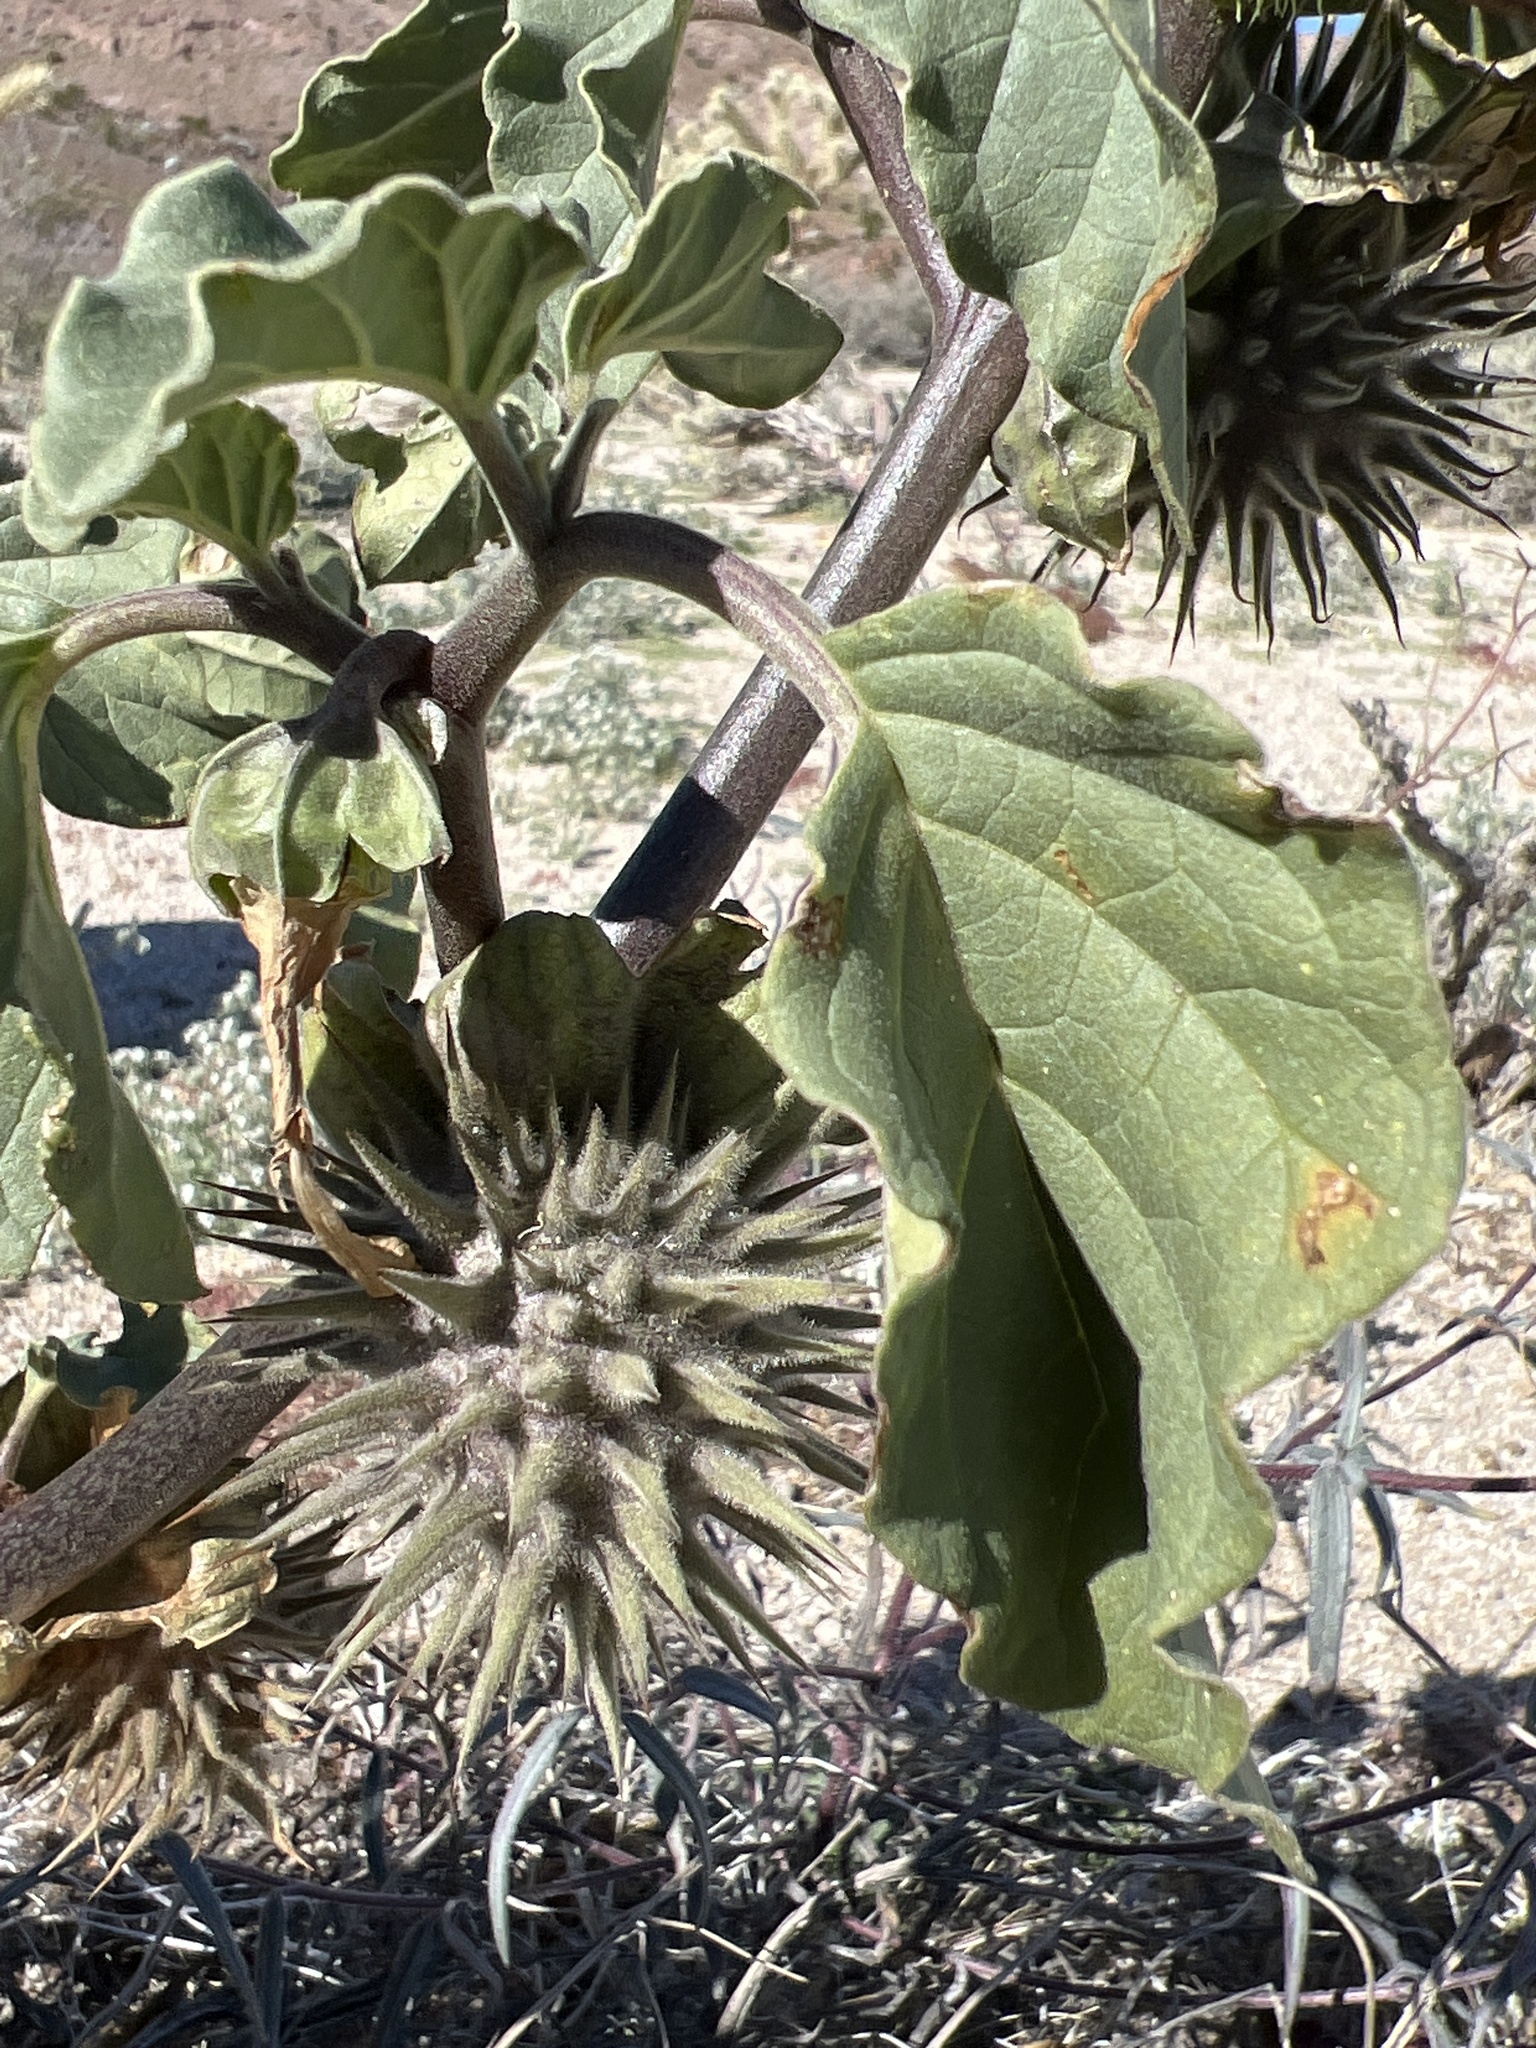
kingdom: Plantae
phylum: Tracheophyta
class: Magnoliopsida
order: Solanales
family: Solanaceae
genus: Datura
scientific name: Datura discolor
